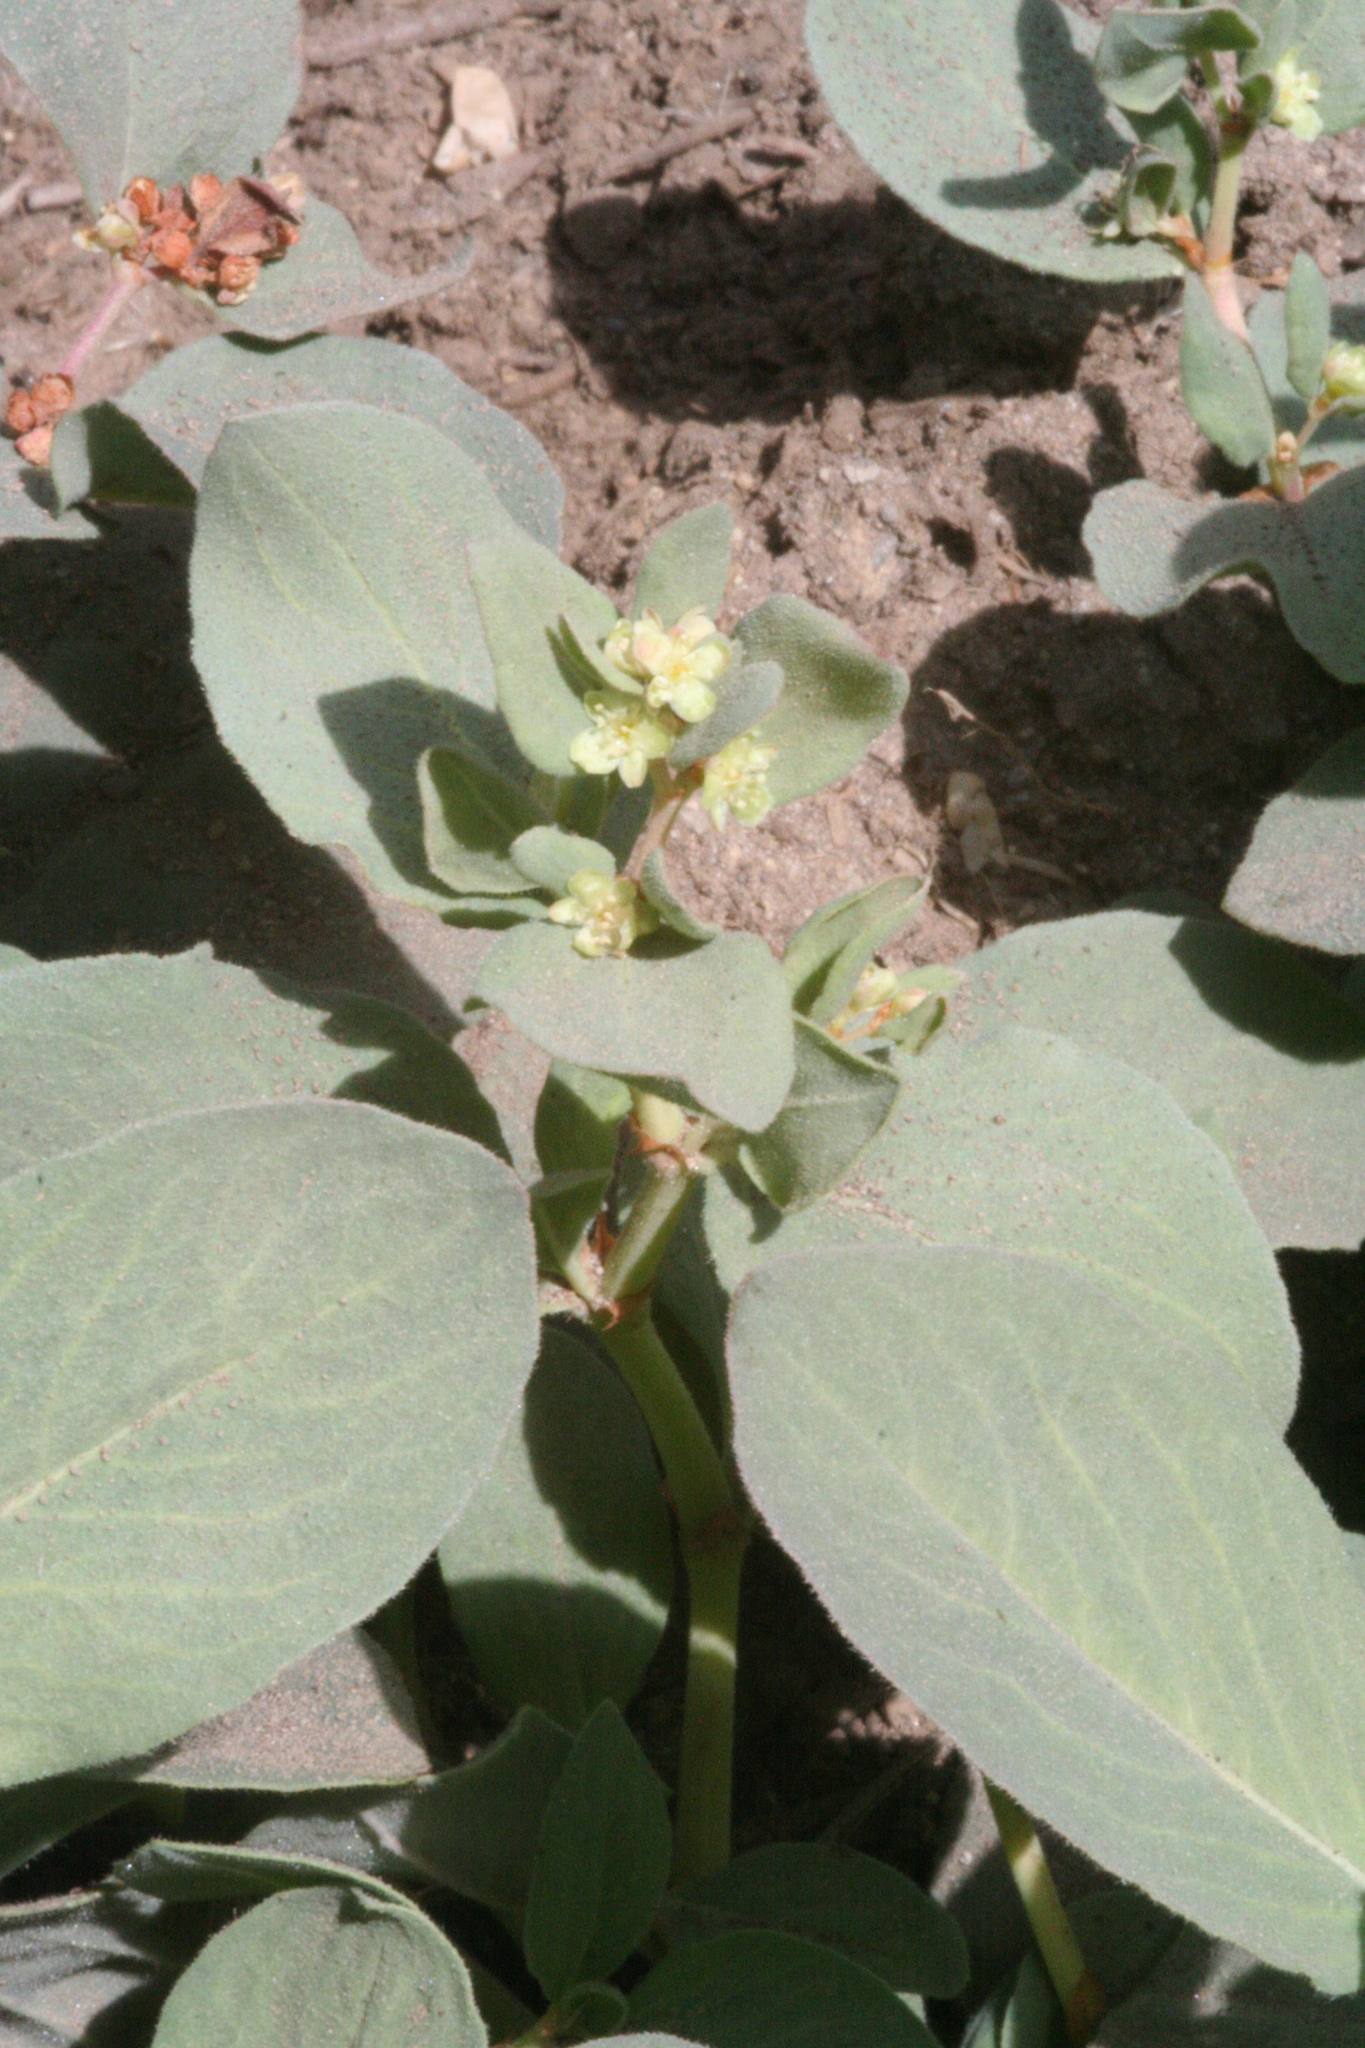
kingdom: Plantae
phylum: Tracheophyta
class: Magnoliopsida
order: Caryophyllales
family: Polygonaceae
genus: Koenigia
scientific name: Koenigia davisiae
